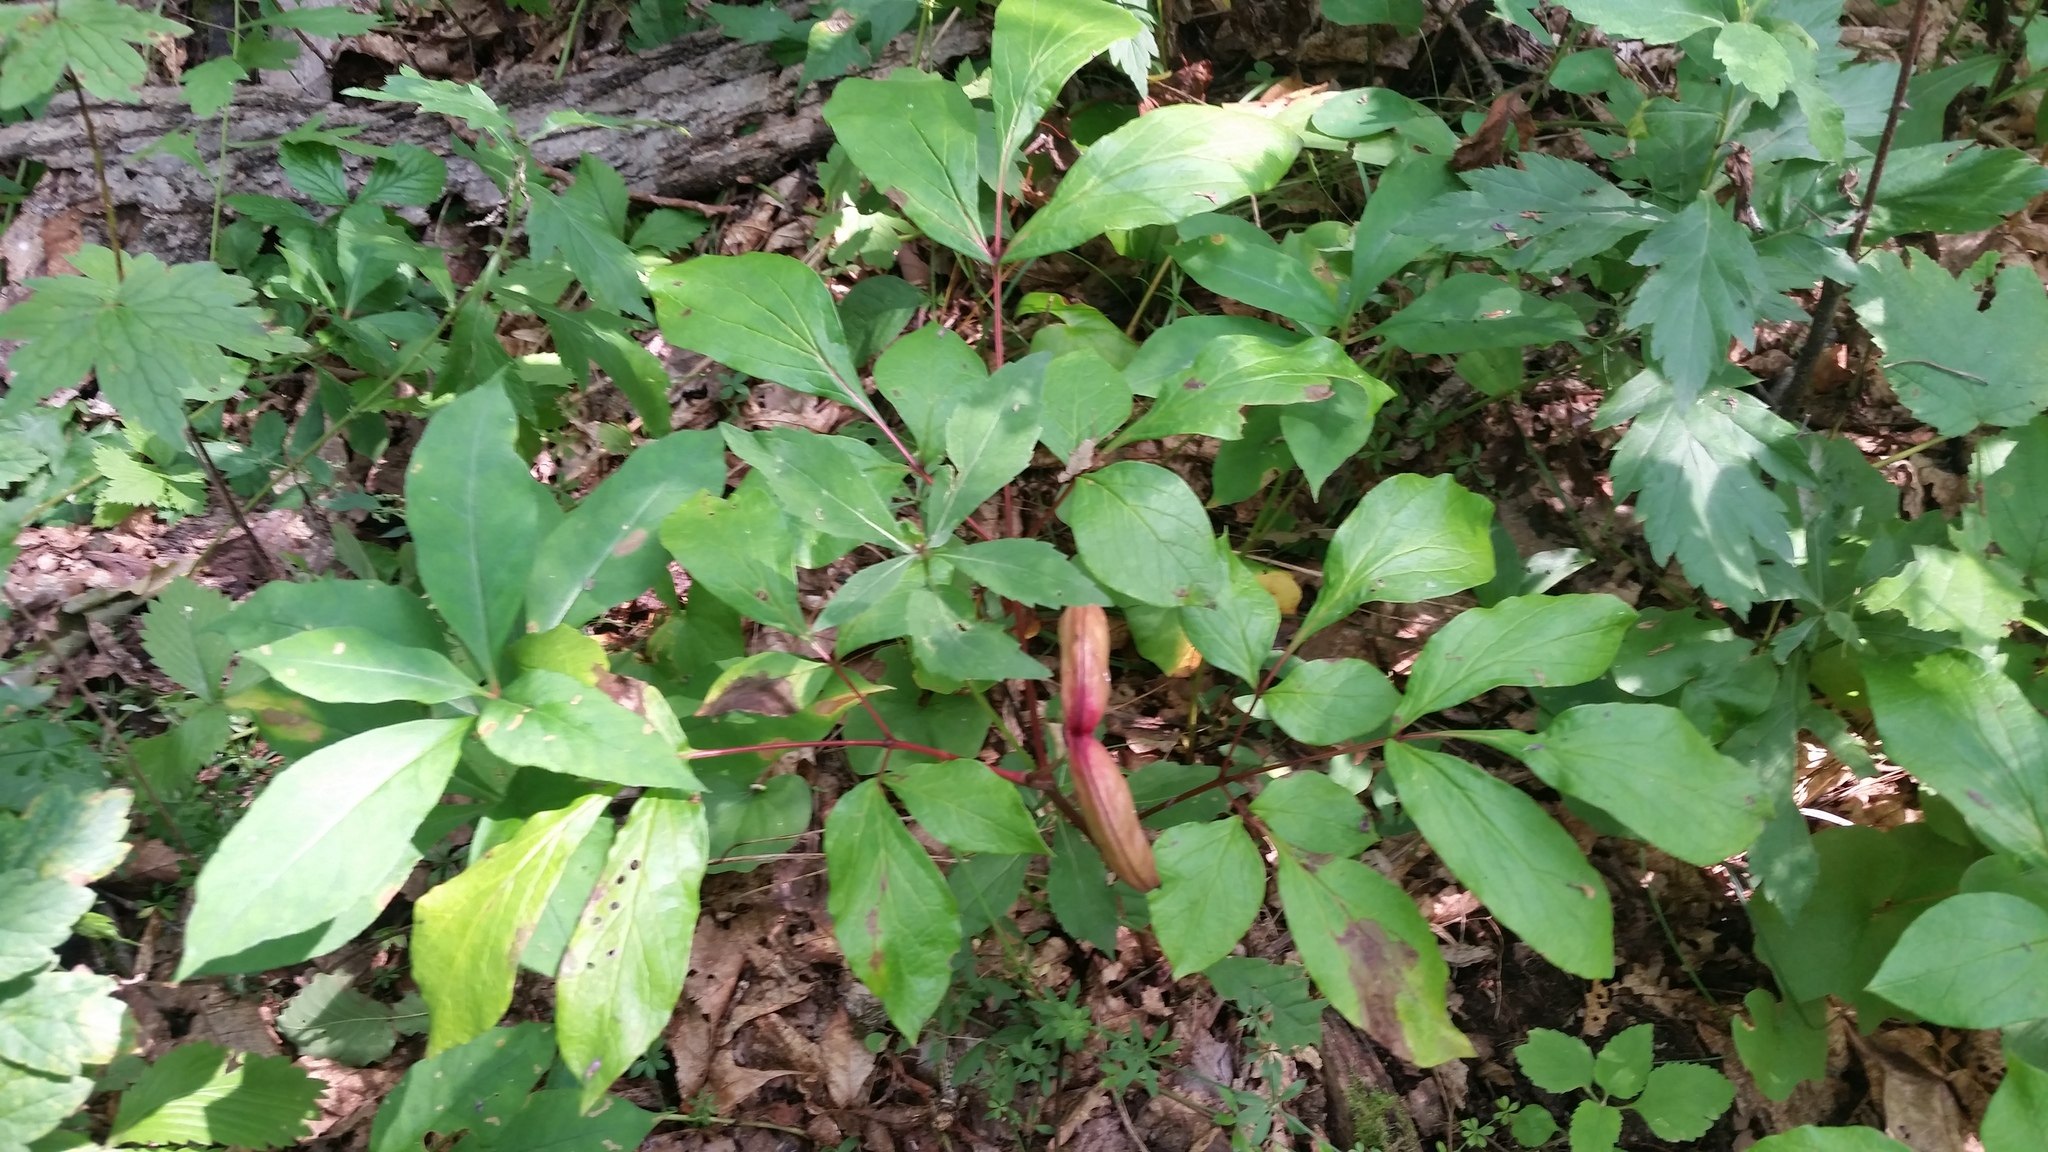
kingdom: Plantae
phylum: Tracheophyta
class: Magnoliopsida
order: Saxifragales
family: Paeoniaceae
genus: Paeonia
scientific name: Paeonia obovata
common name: Chinese peony
